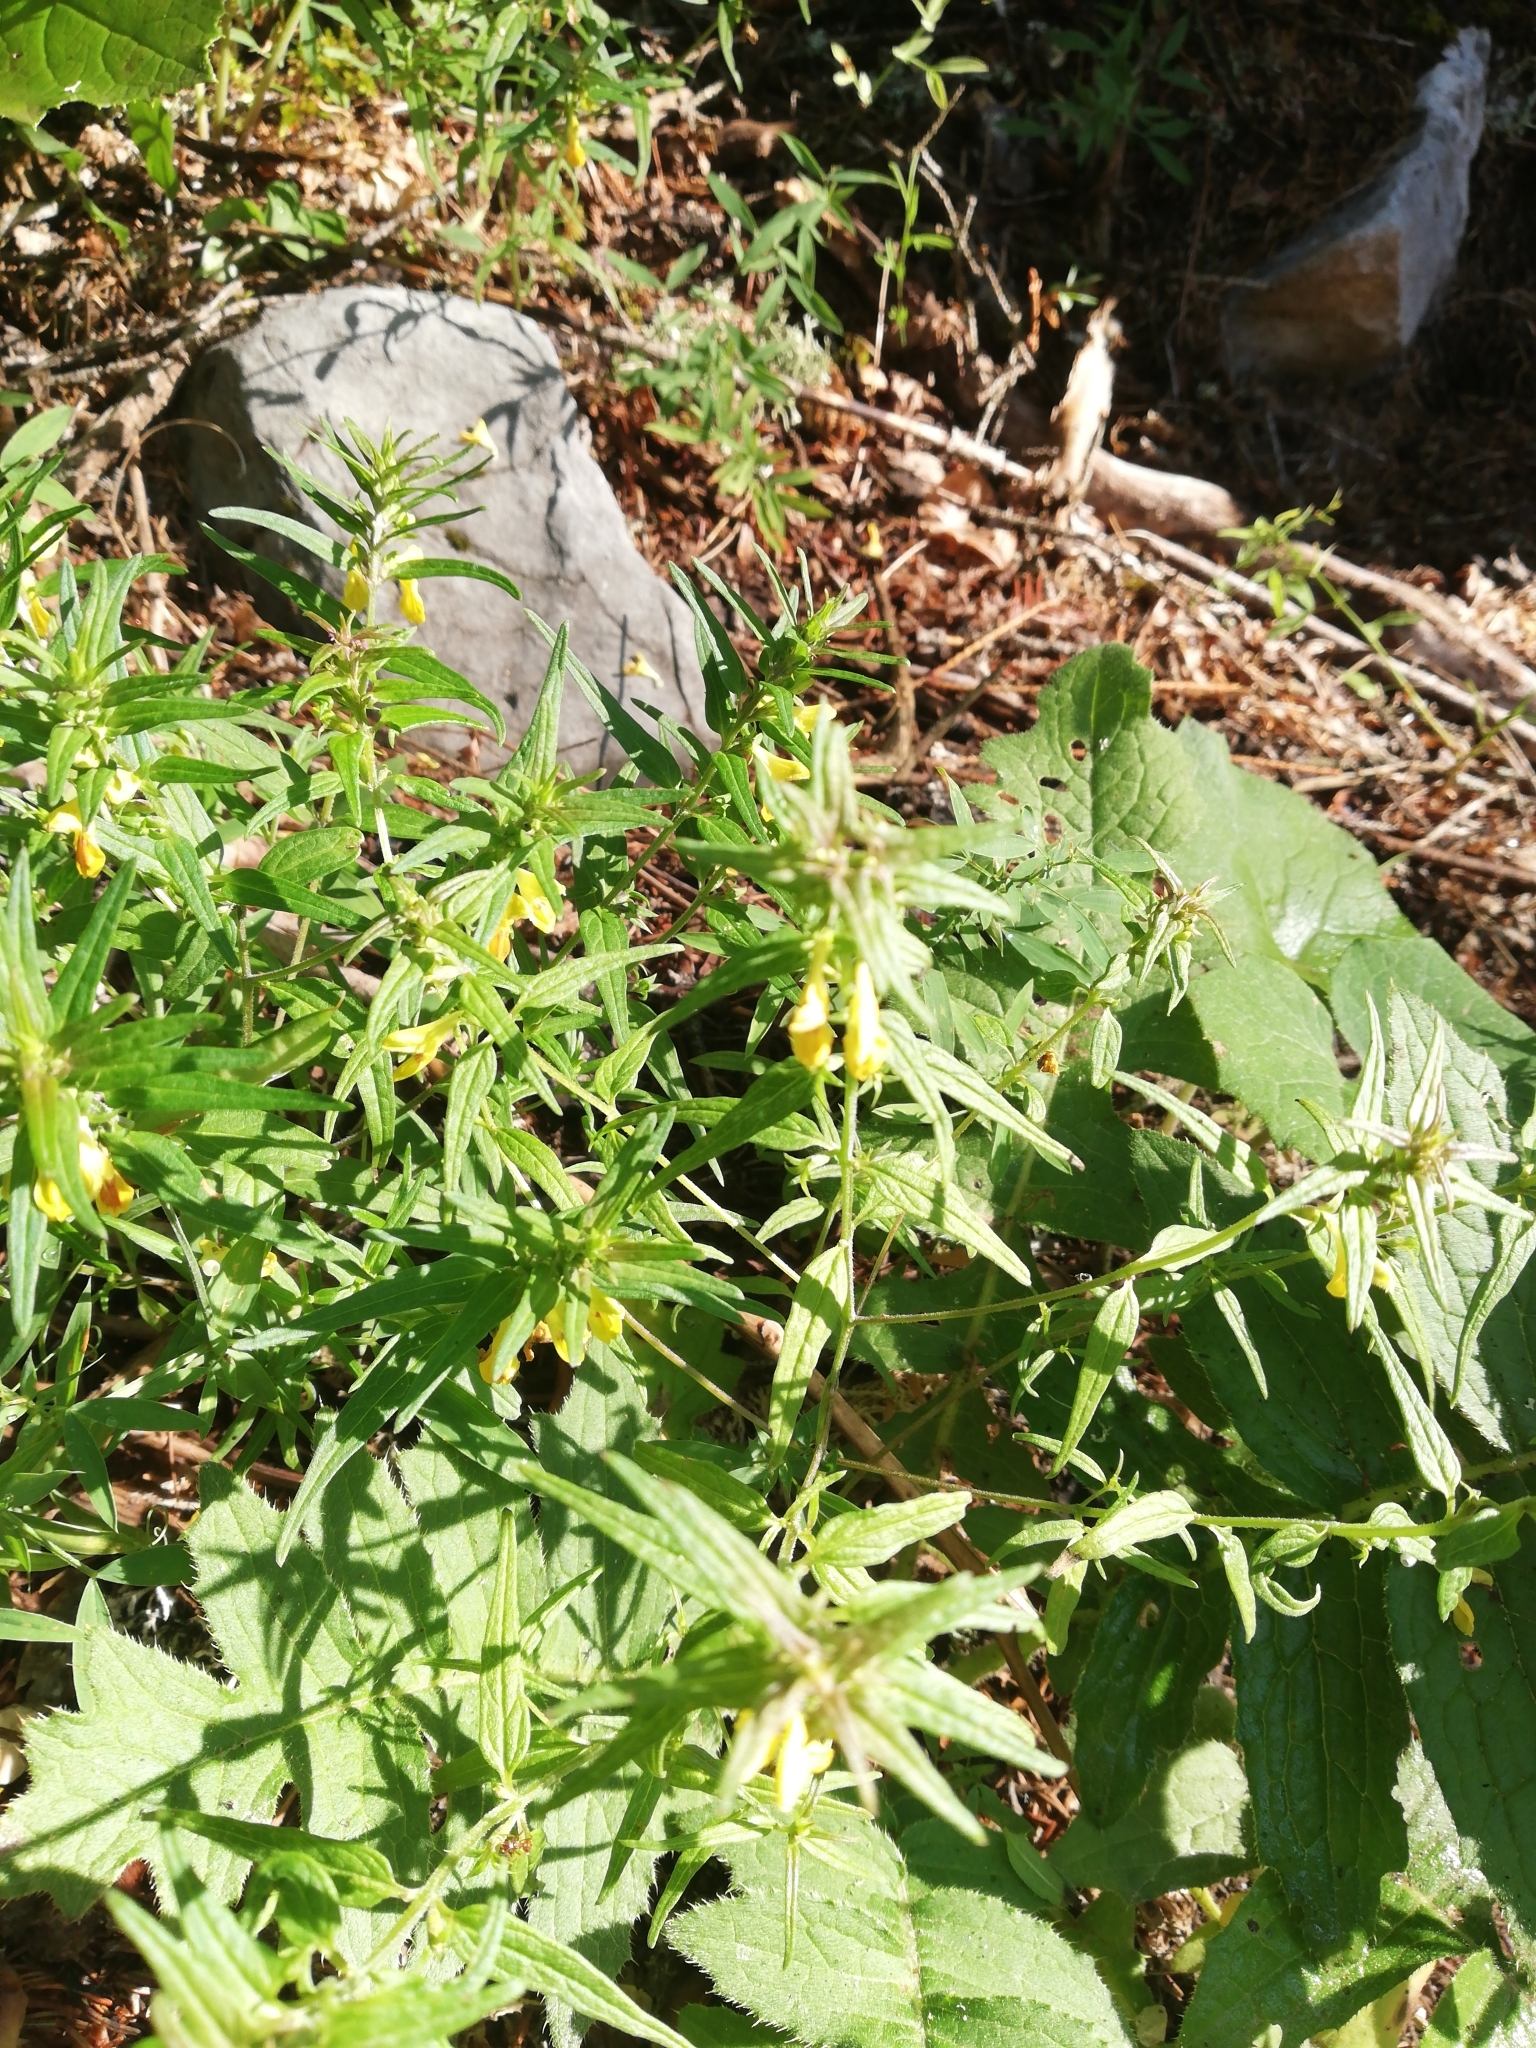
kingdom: Plantae
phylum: Tracheophyta
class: Magnoliopsida
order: Lamiales
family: Orobanchaceae
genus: Melampyrum
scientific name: Melampyrum sylvaticum
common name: Small cow-wheat
